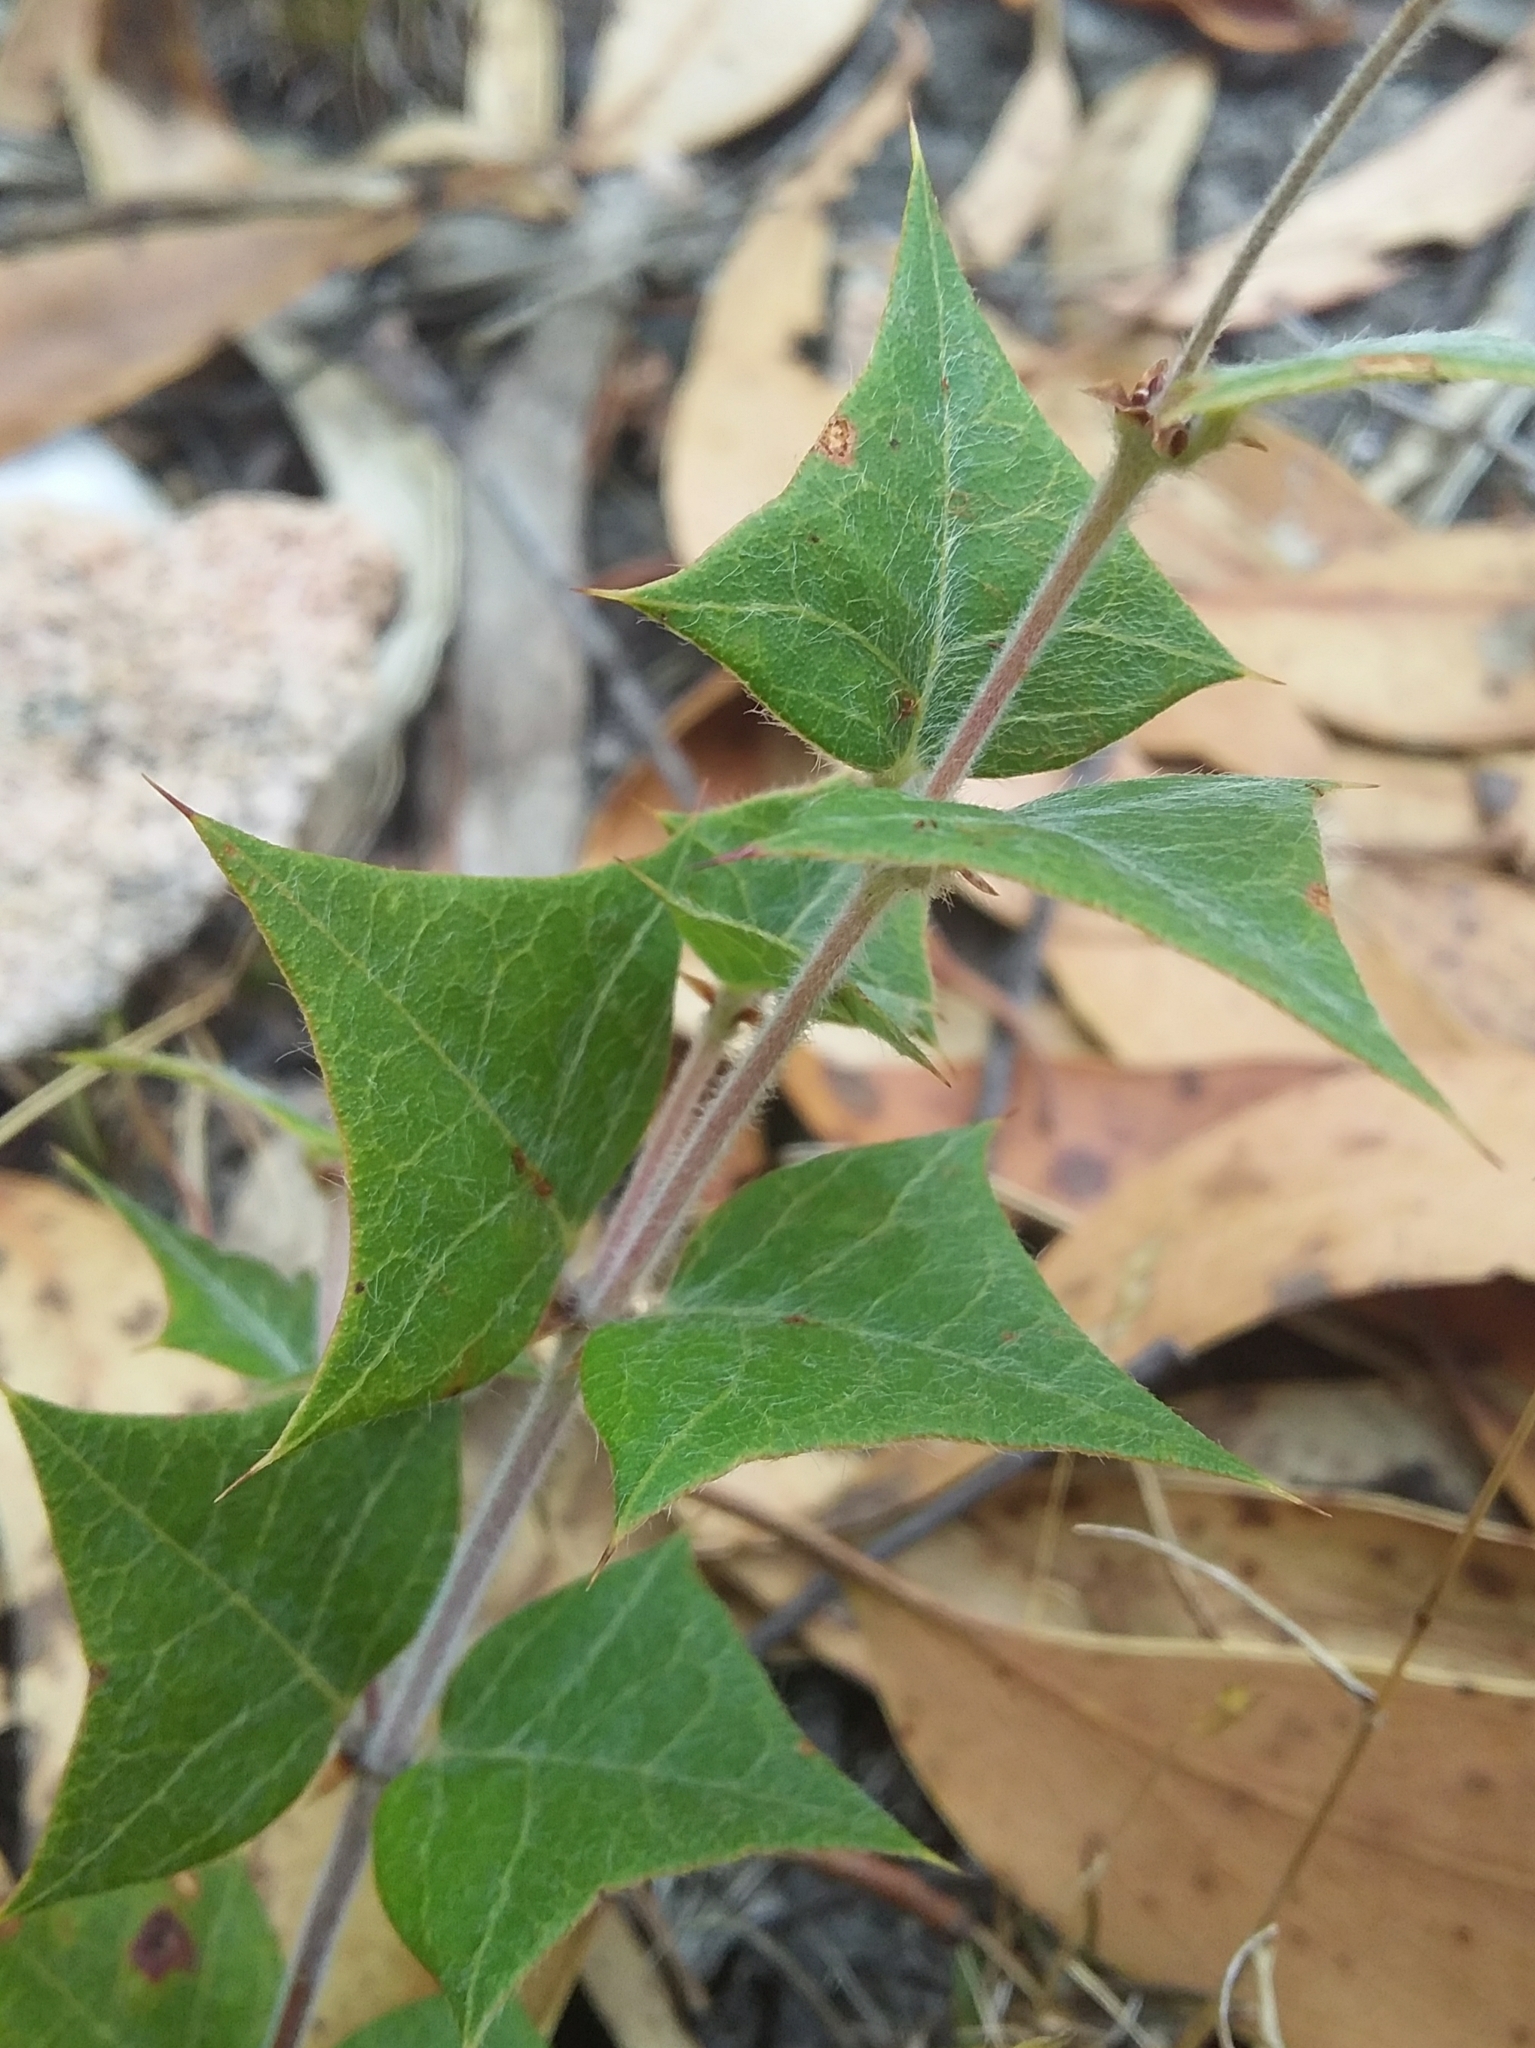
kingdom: Plantae
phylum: Tracheophyta
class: Magnoliopsida
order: Fabales
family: Fabaceae
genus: Platylobium
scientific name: Platylobium obtusangulum
